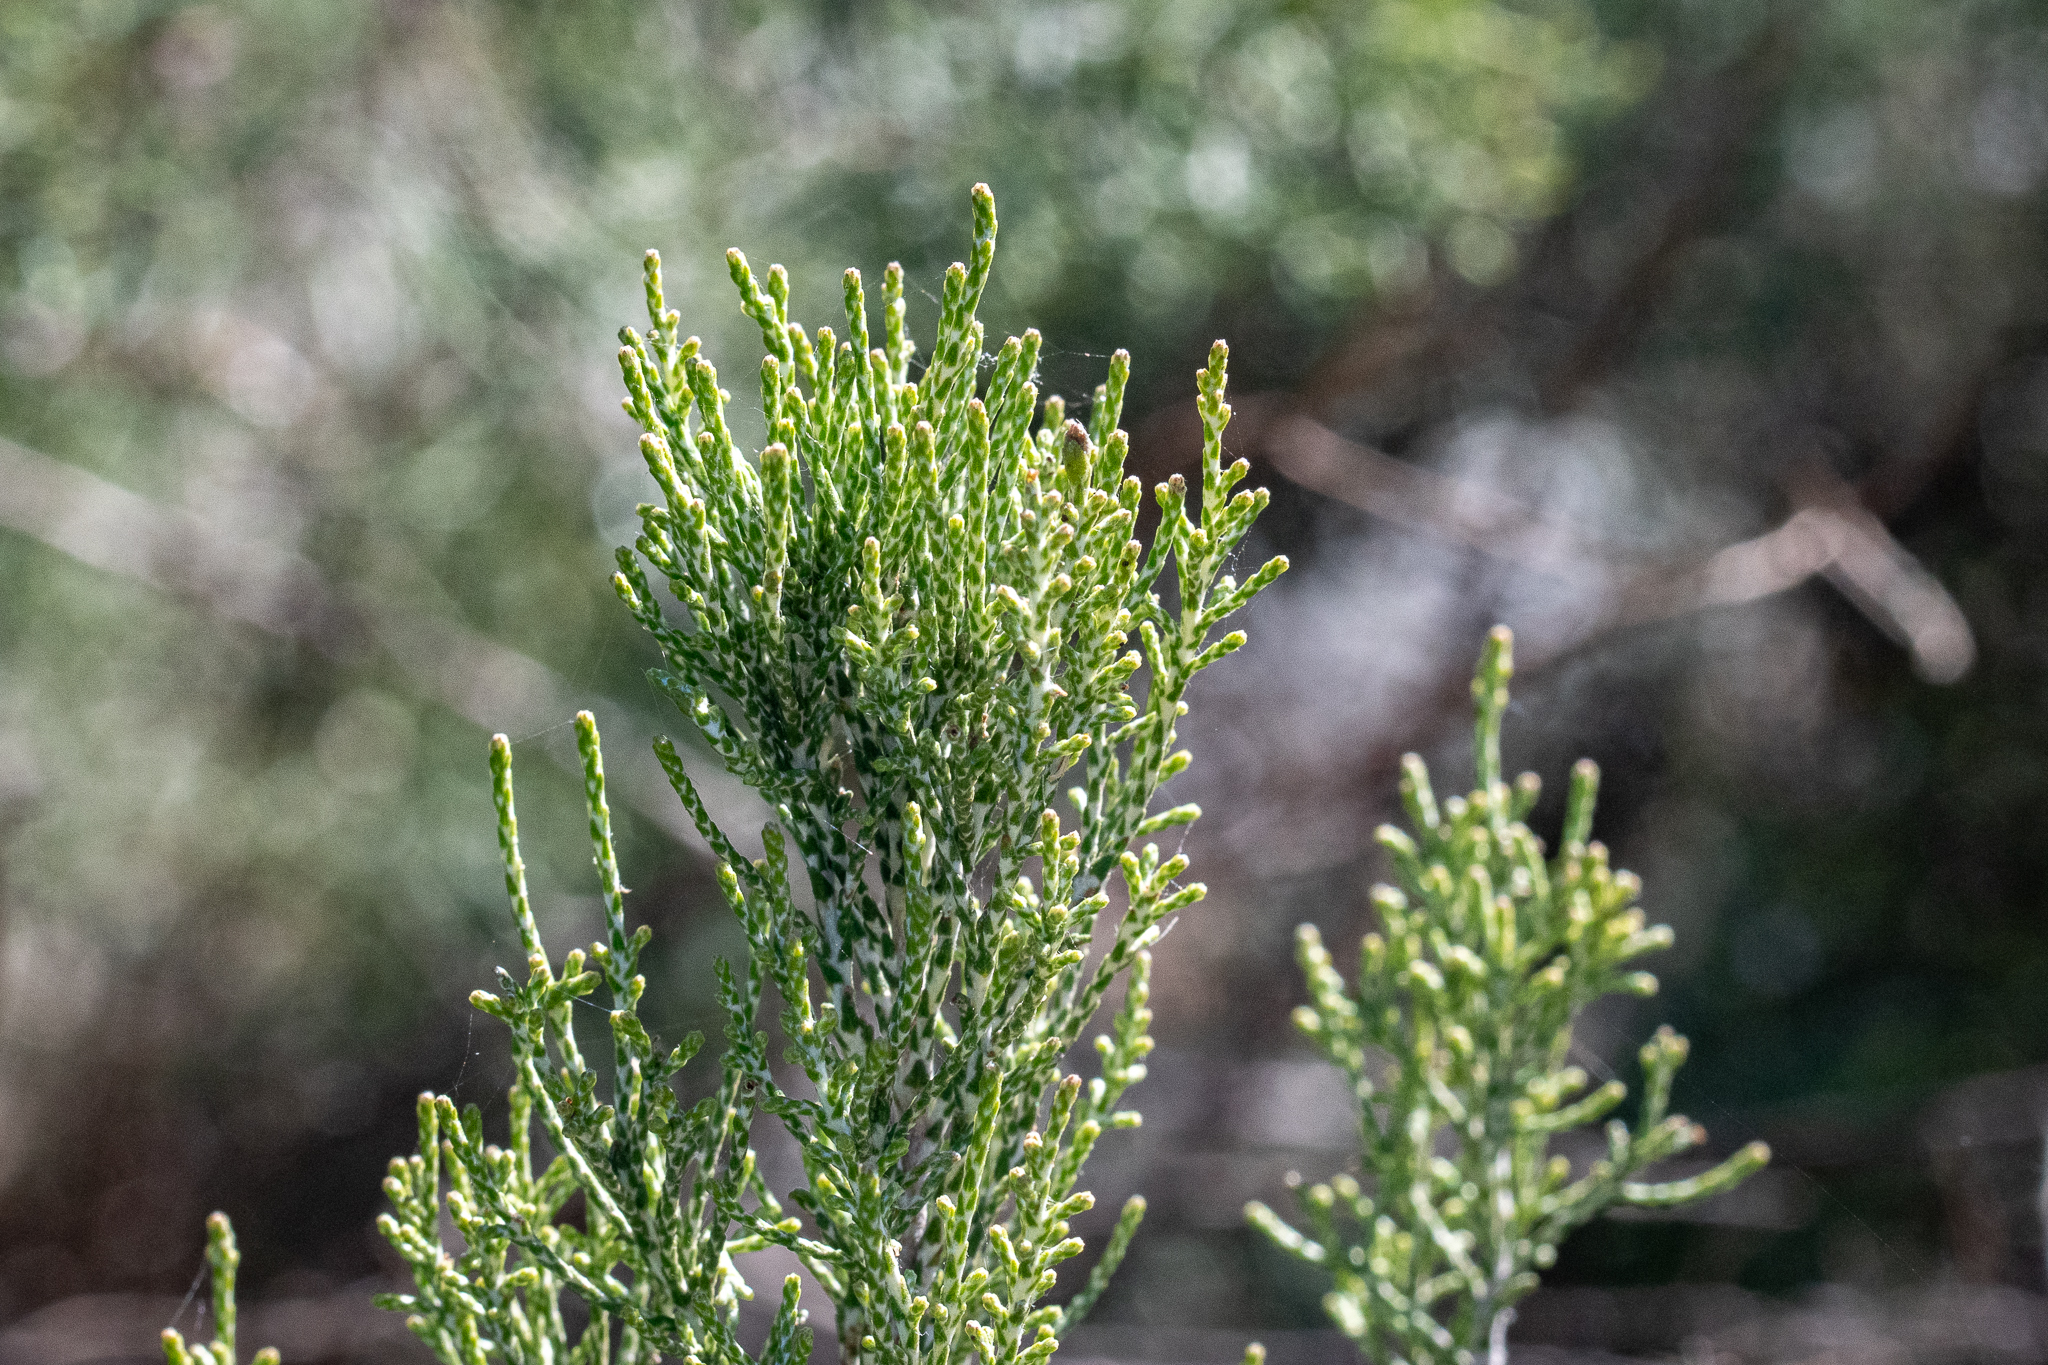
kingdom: Plantae
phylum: Tracheophyta
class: Magnoliopsida
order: Asterales
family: Asteraceae
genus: Dicerothamnus
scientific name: Dicerothamnus rhinocerotis
